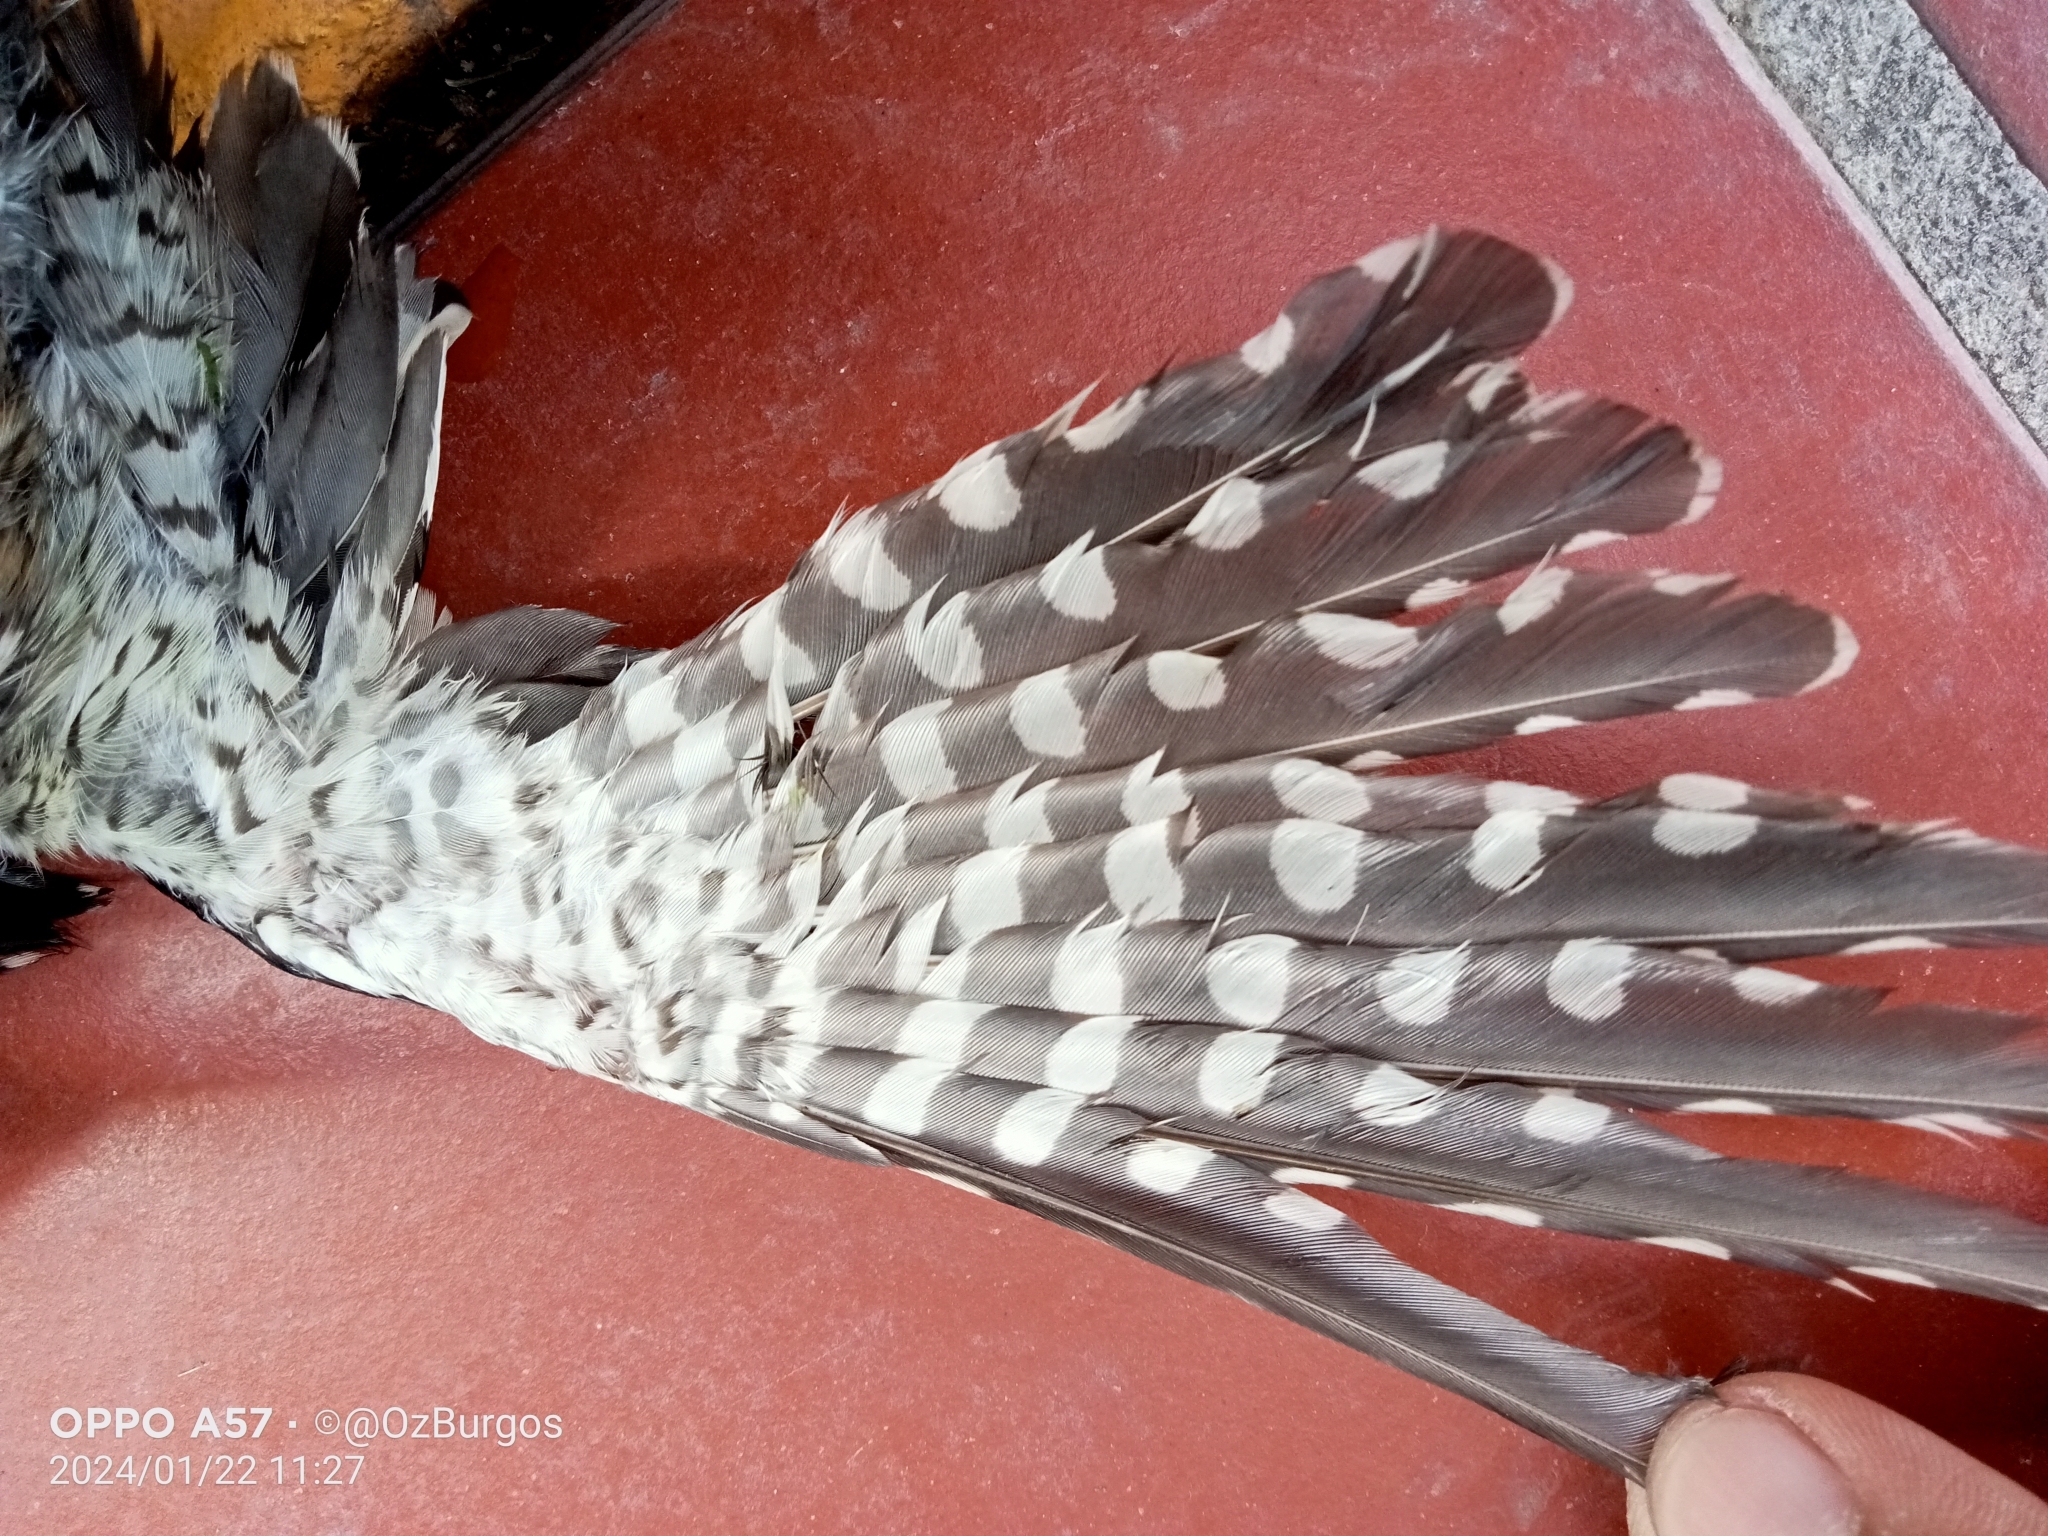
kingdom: Animalia
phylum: Chordata
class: Aves
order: Piciformes
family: Picidae
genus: Sphyrapicus
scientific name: Sphyrapicus varius
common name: Yellow-bellied sapsucker
